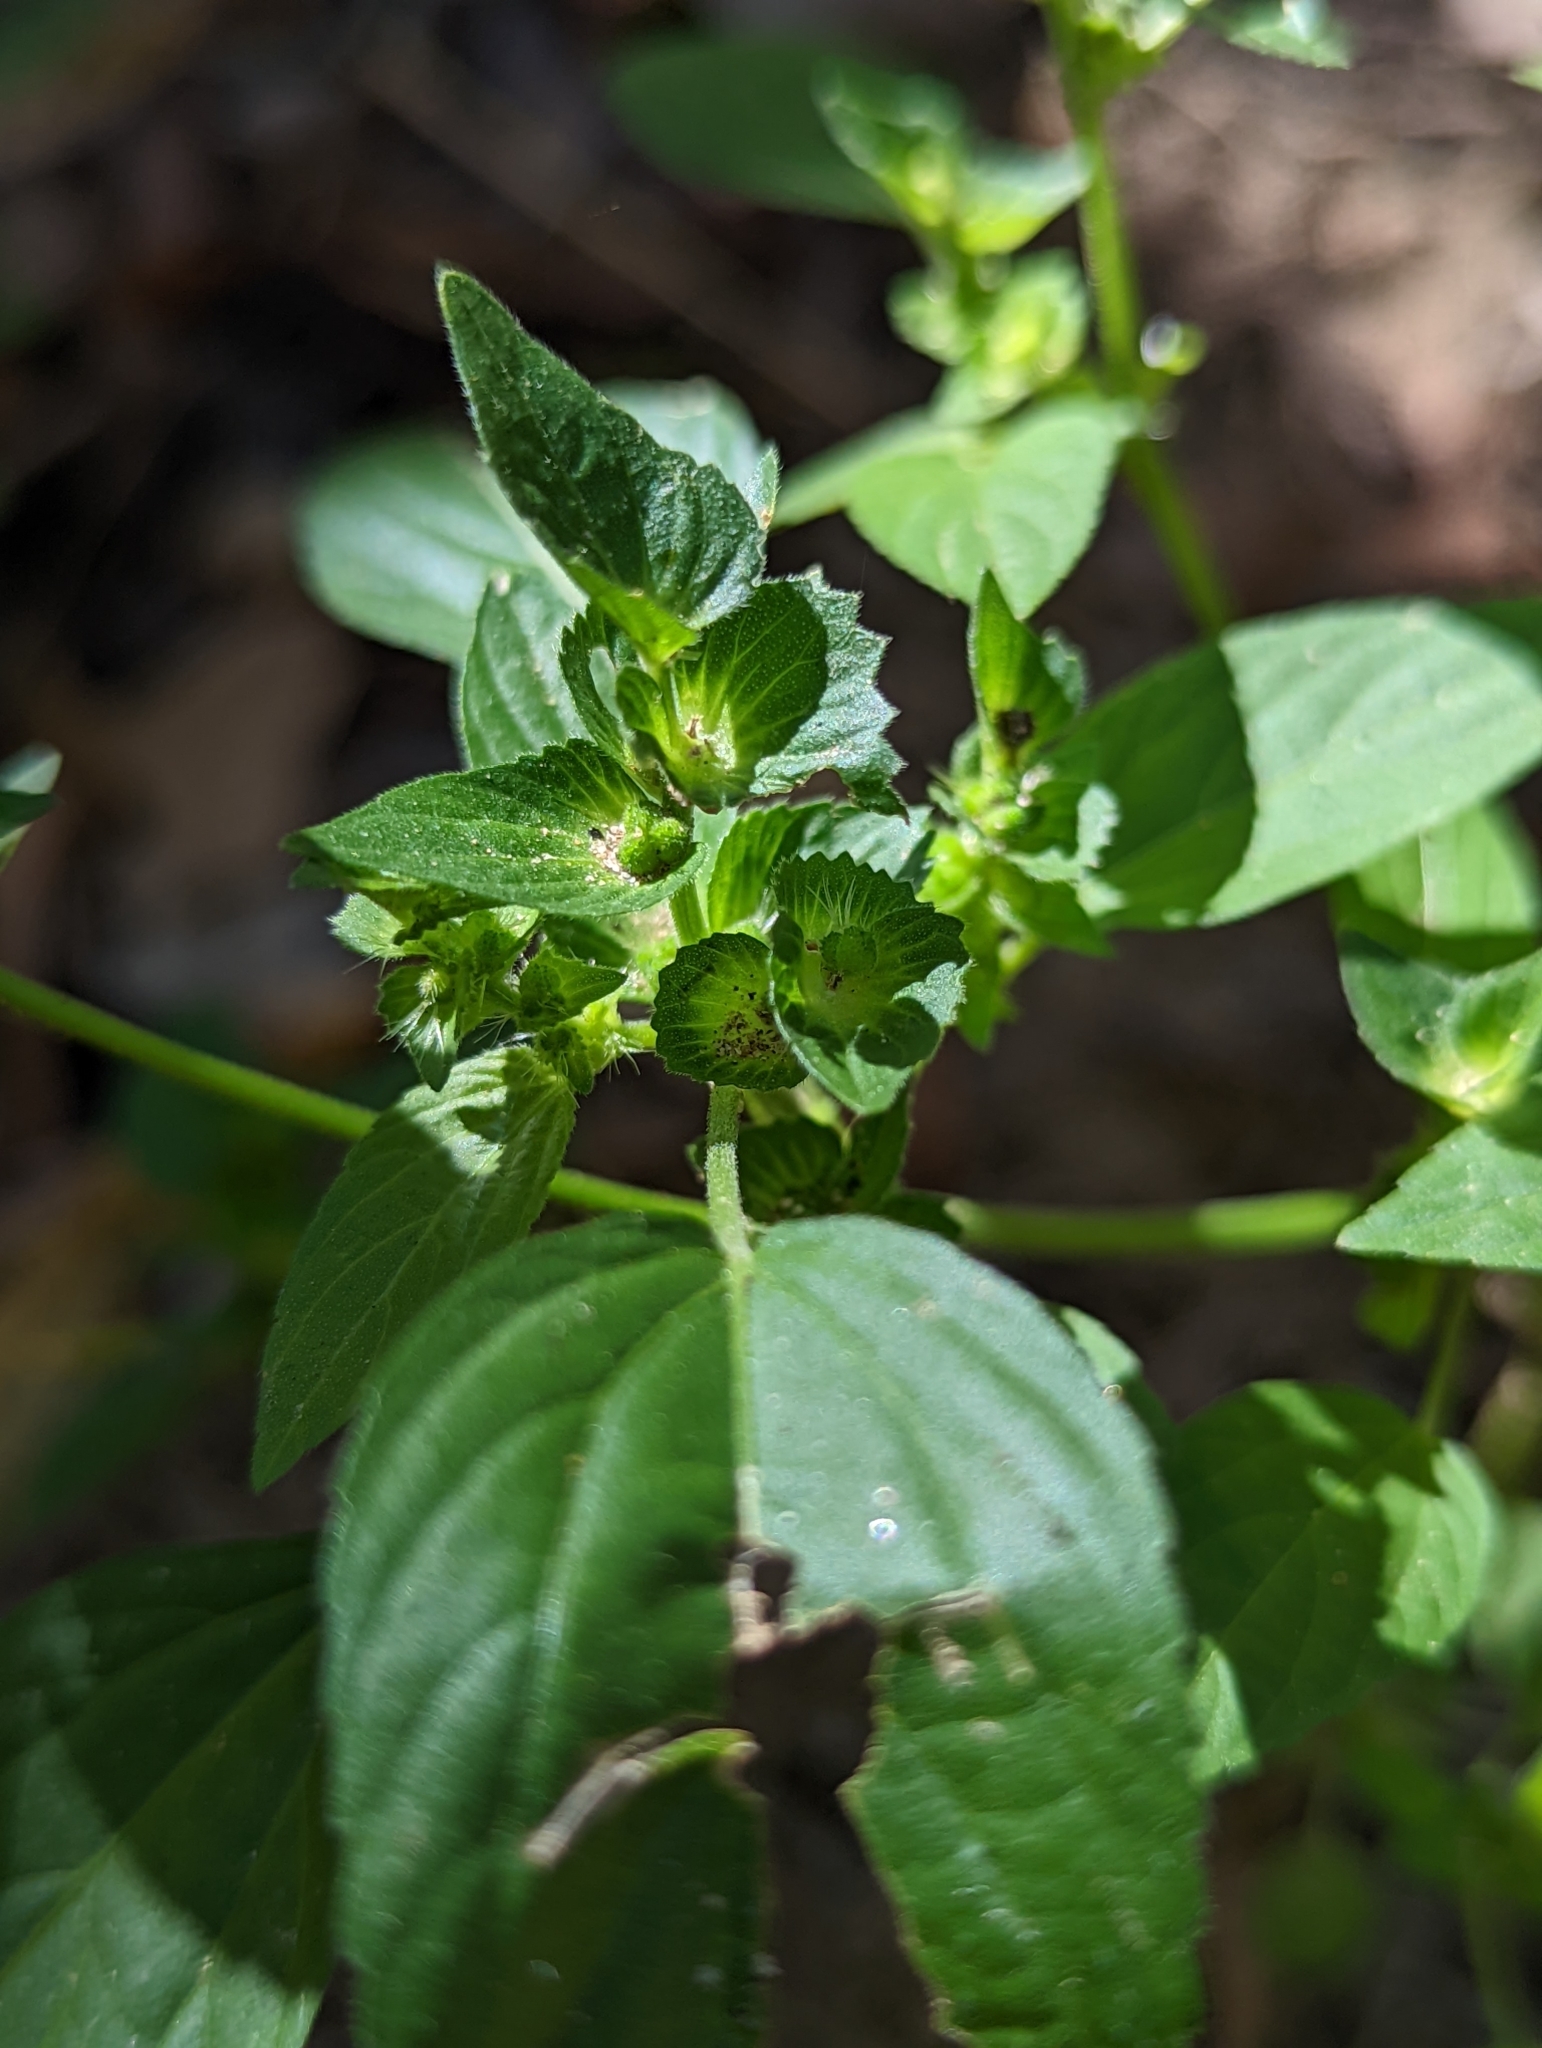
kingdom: Plantae
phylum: Tracheophyta
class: Magnoliopsida
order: Malpighiales
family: Euphorbiaceae
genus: Acalypha
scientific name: Acalypha neomexicana
